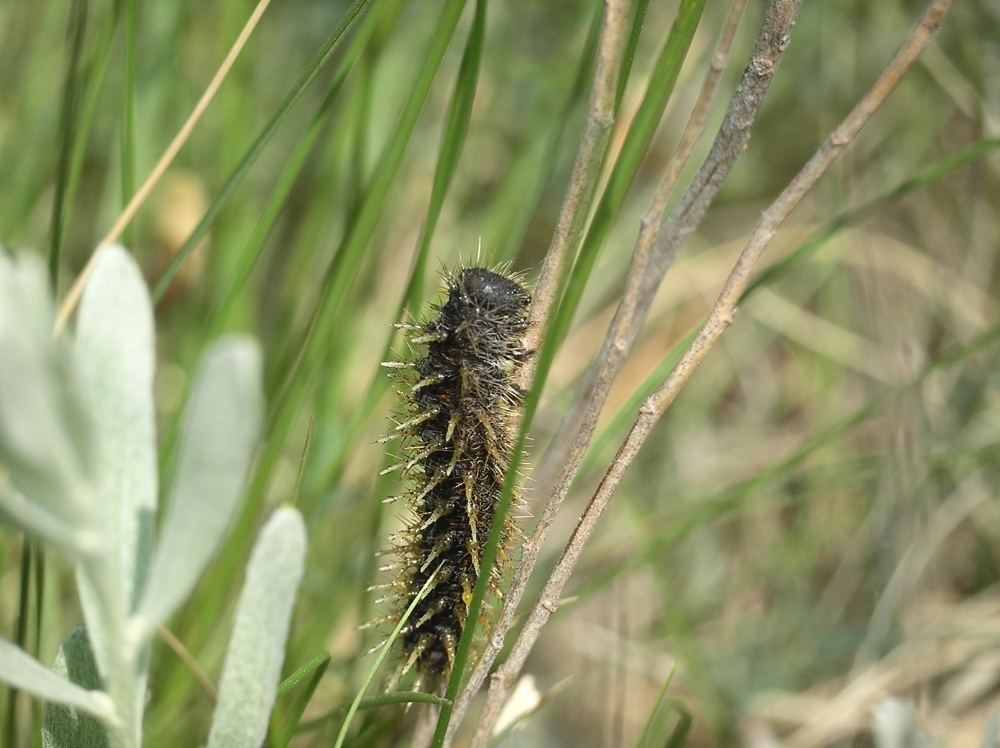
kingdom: Animalia
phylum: Arthropoda
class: Insecta
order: Lepidoptera
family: Nymphalidae
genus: Damora
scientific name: Damora pandora
